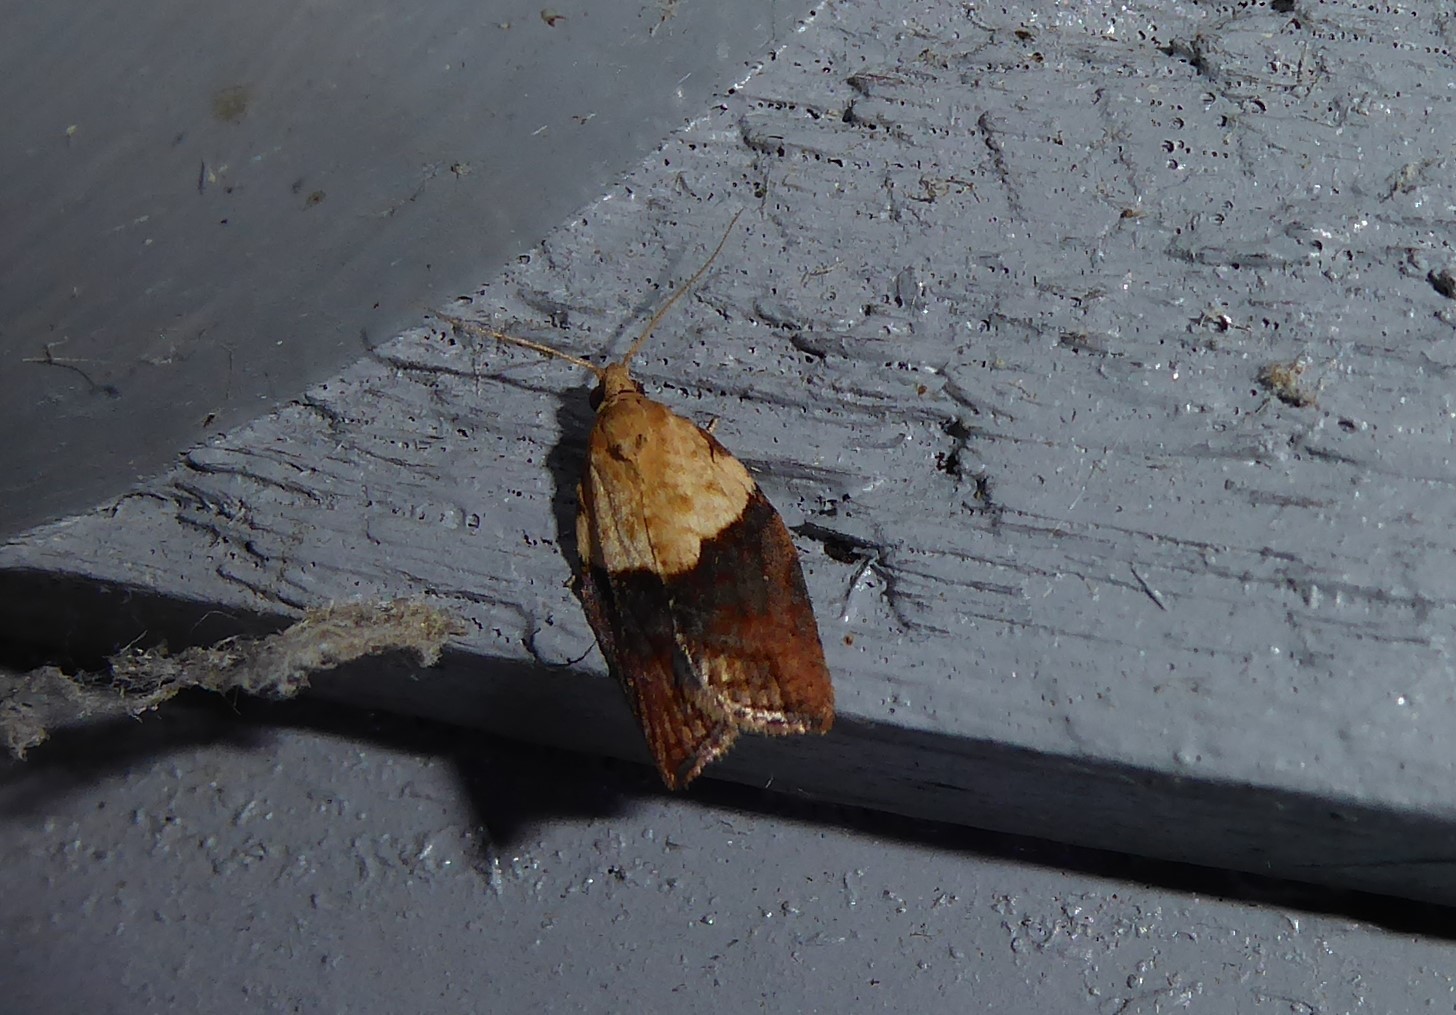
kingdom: Animalia
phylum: Arthropoda
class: Insecta
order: Lepidoptera
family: Tortricidae
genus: Epiphyas
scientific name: Epiphyas postvittana
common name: Light brown apple moth
